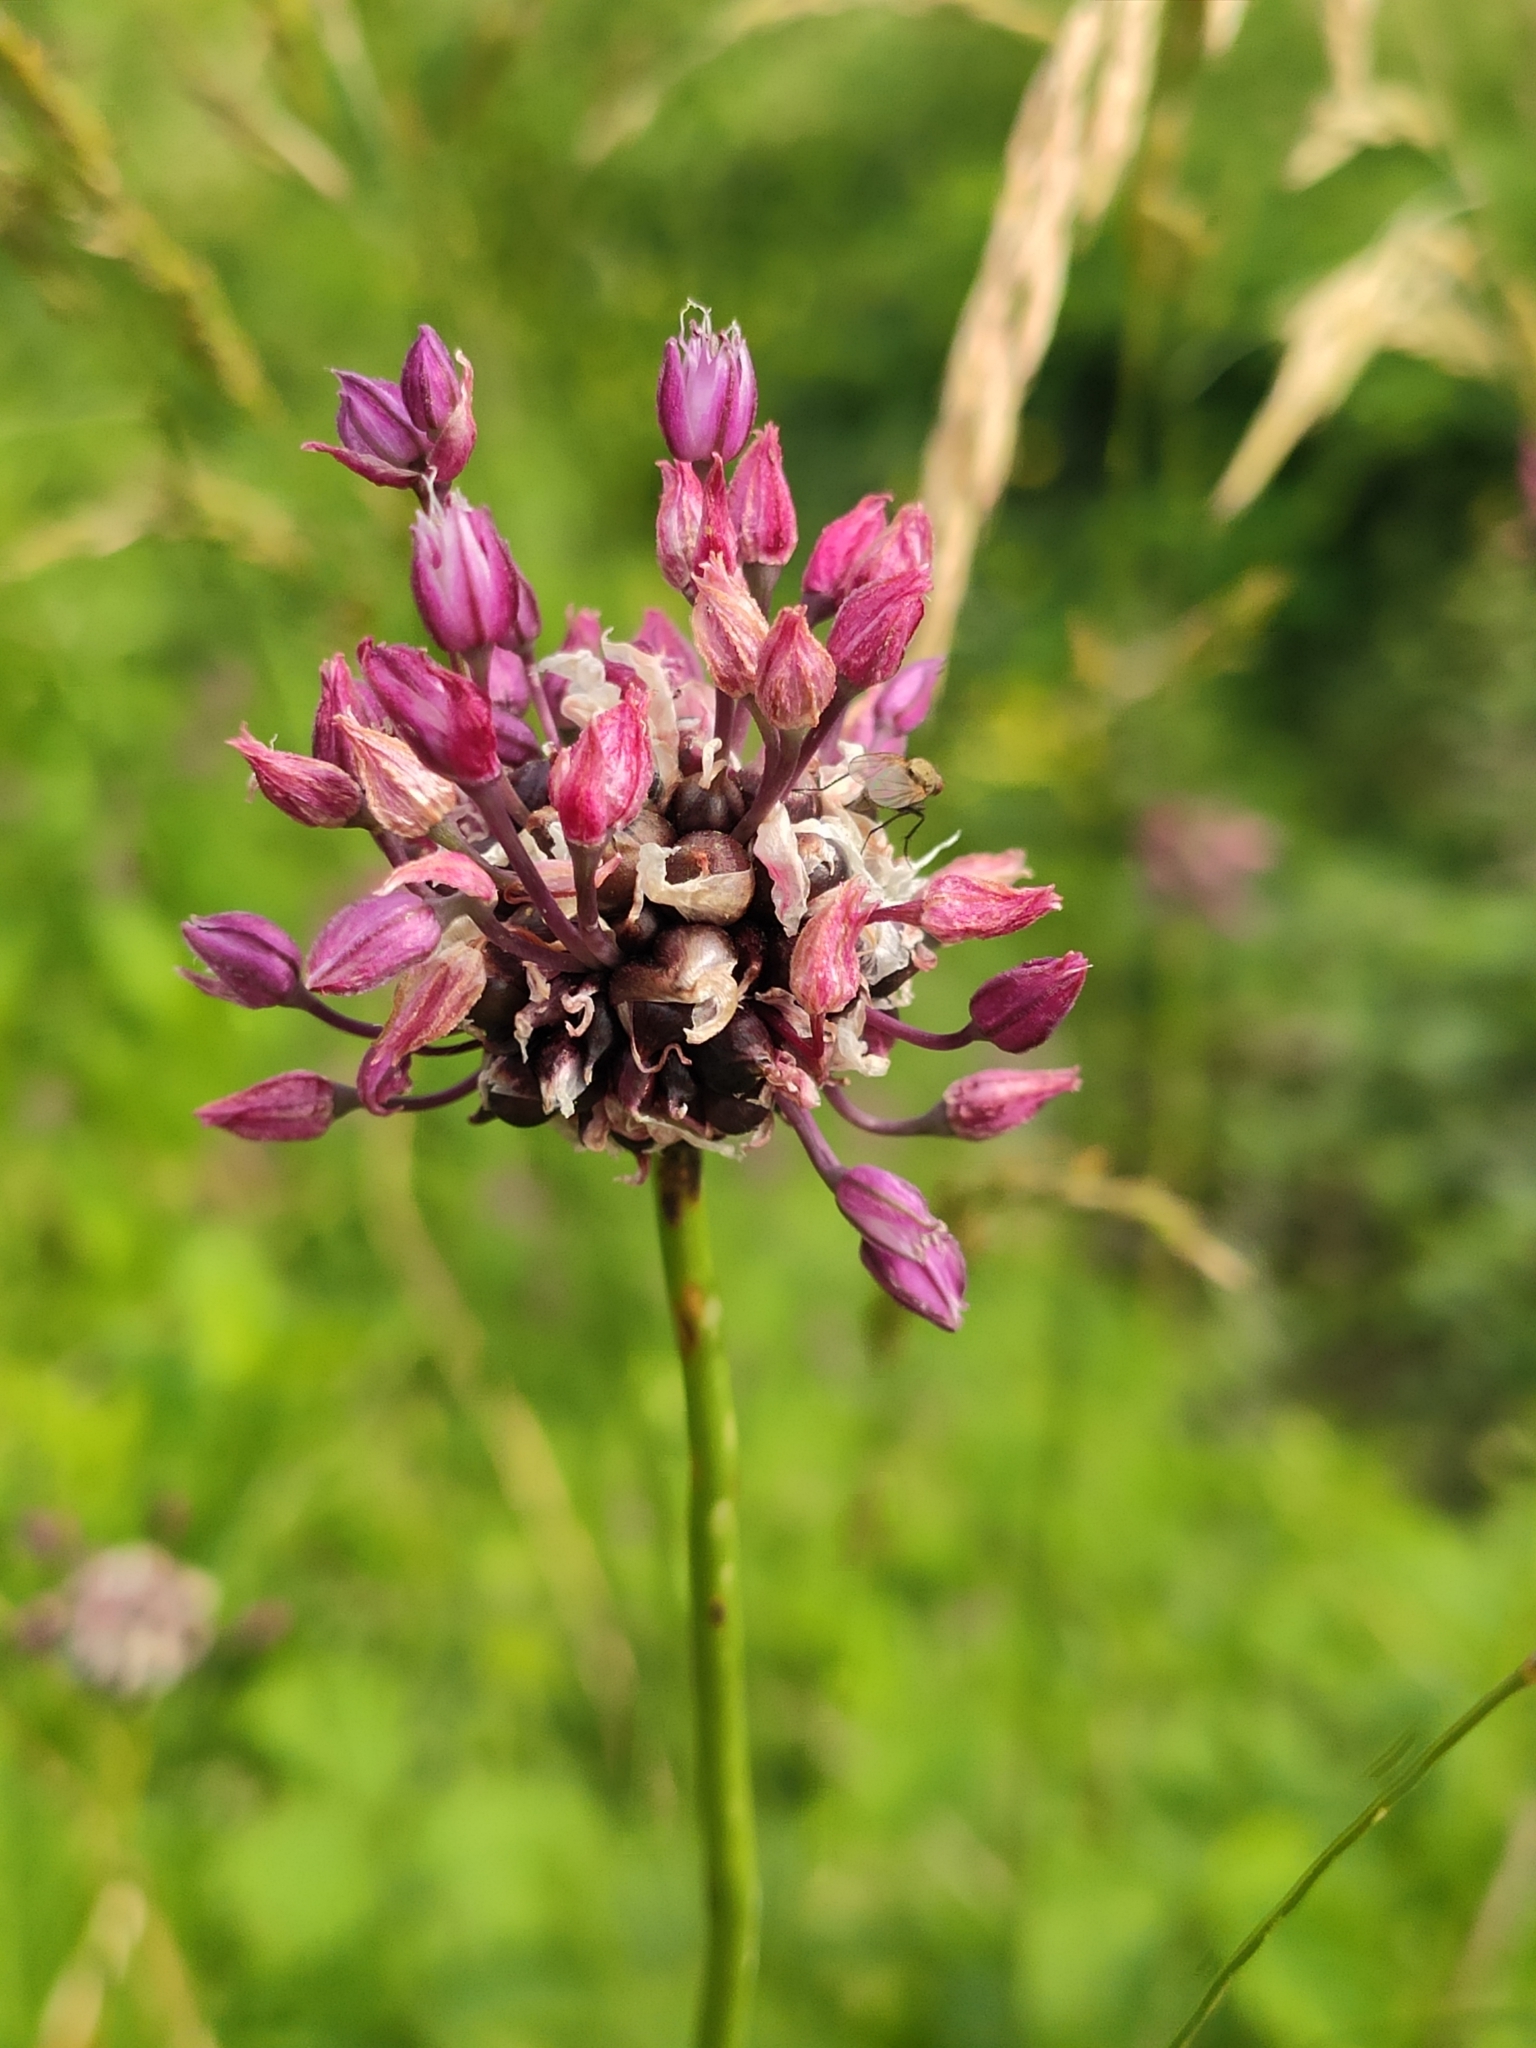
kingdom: Plantae
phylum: Tracheophyta
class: Liliopsida
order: Asparagales
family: Amaryllidaceae
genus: Allium
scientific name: Allium scorodoprasum
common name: Sand leek
